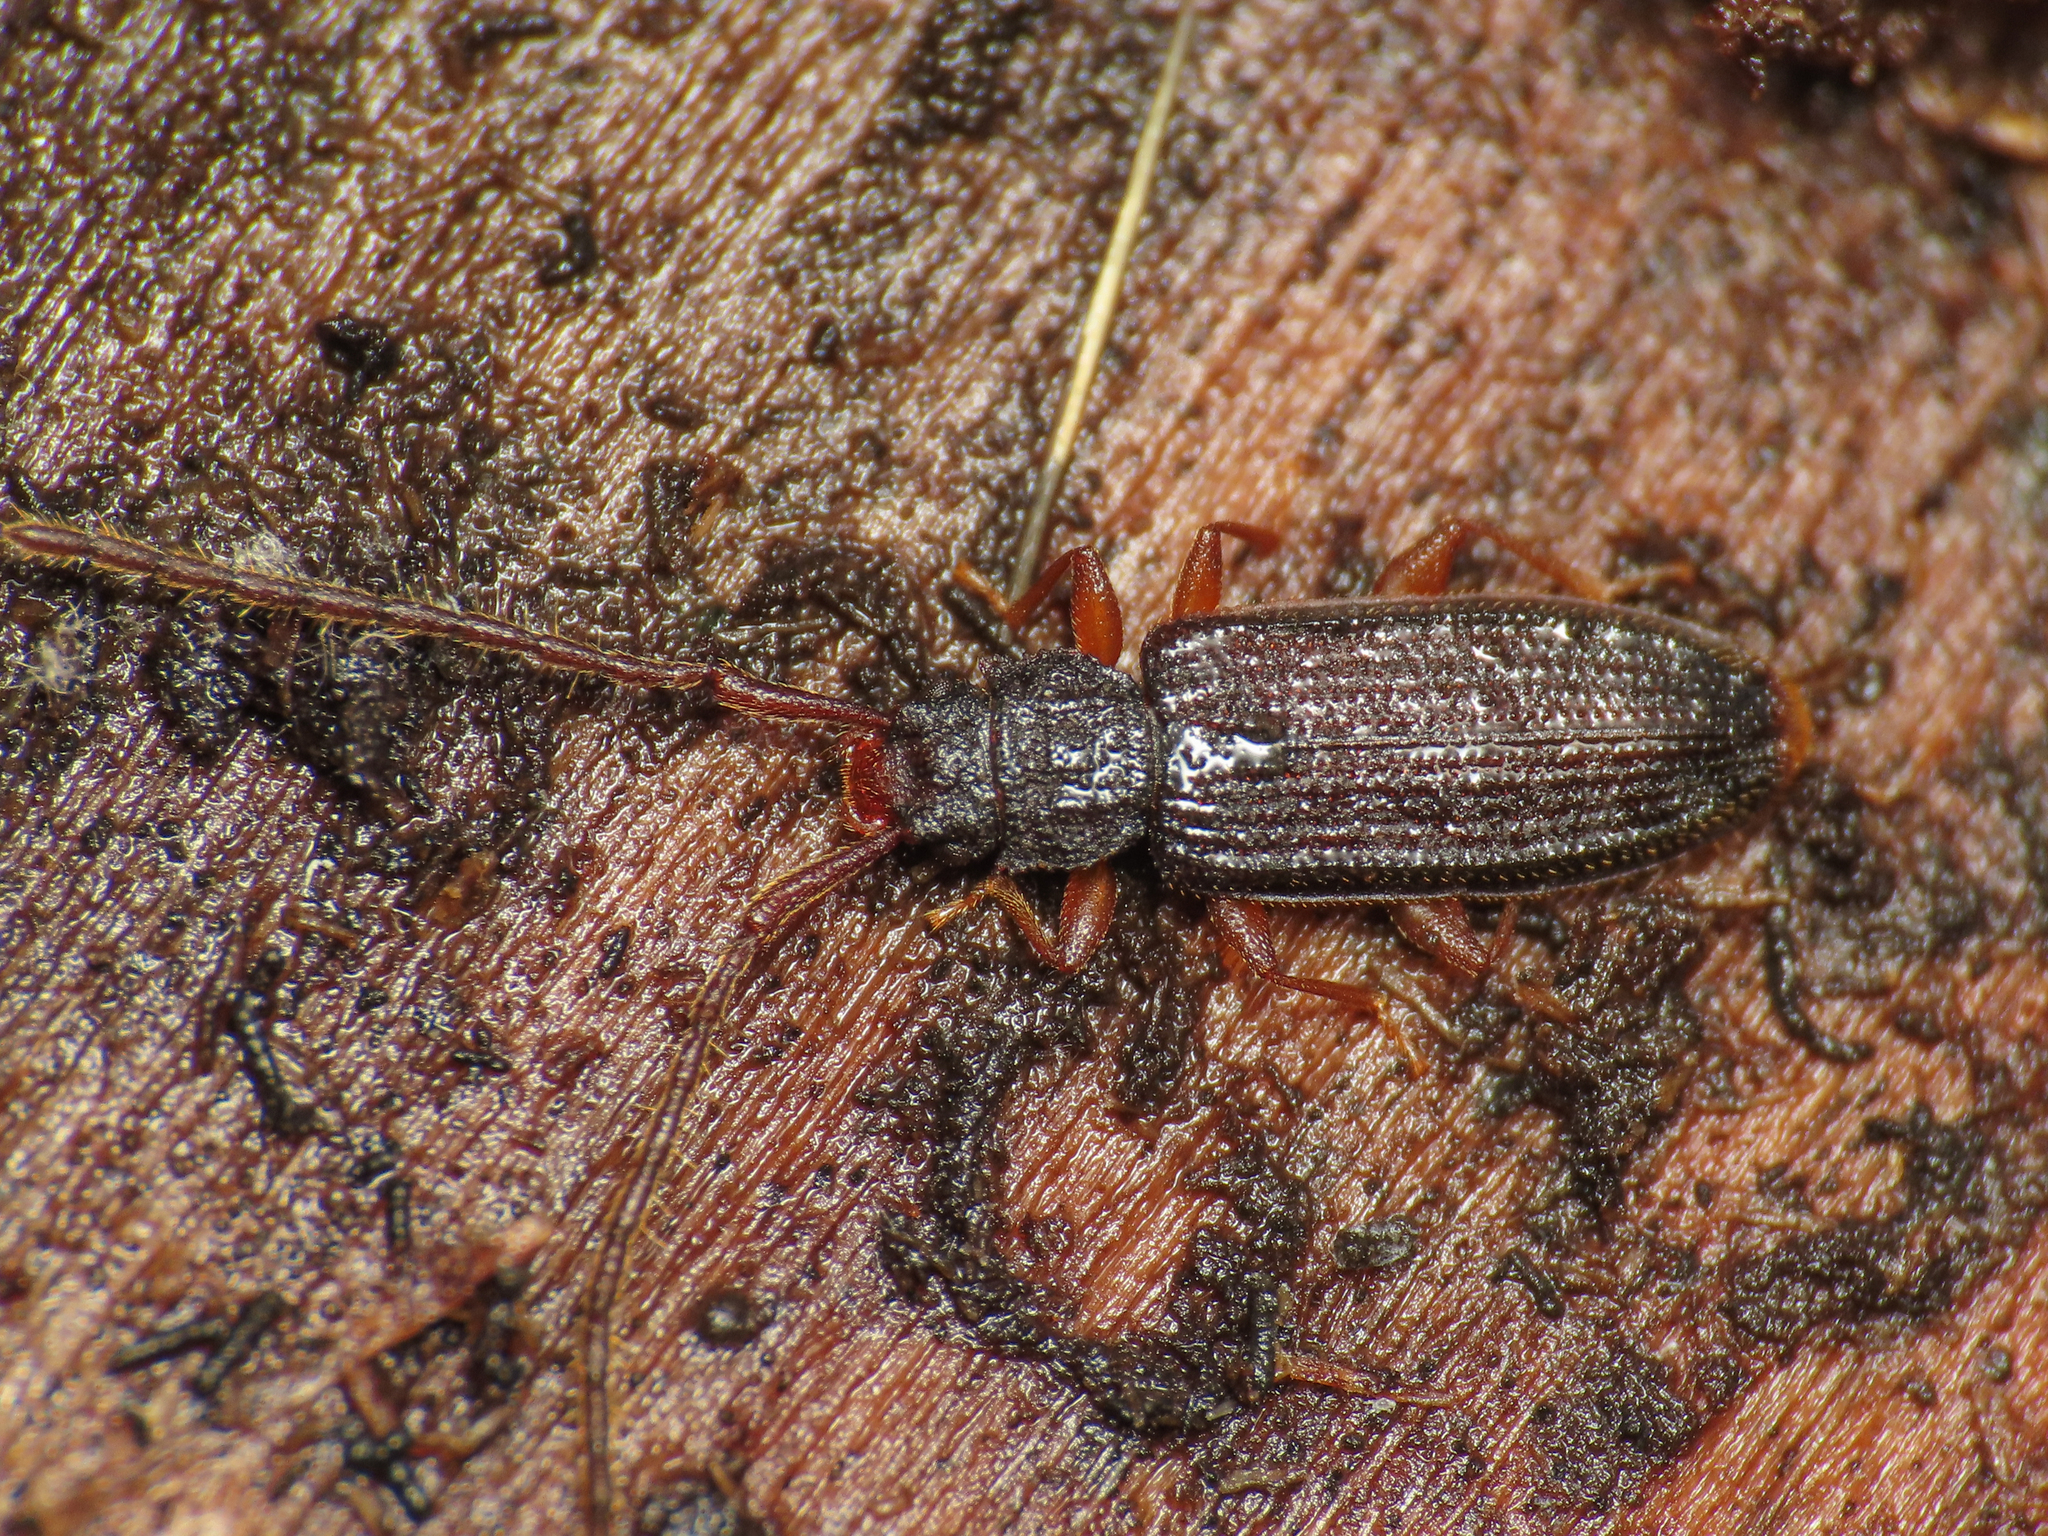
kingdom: Animalia
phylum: Arthropoda
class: Insecta
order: Coleoptera
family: Silvanidae
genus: Uleiota
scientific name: Uleiota planatus
